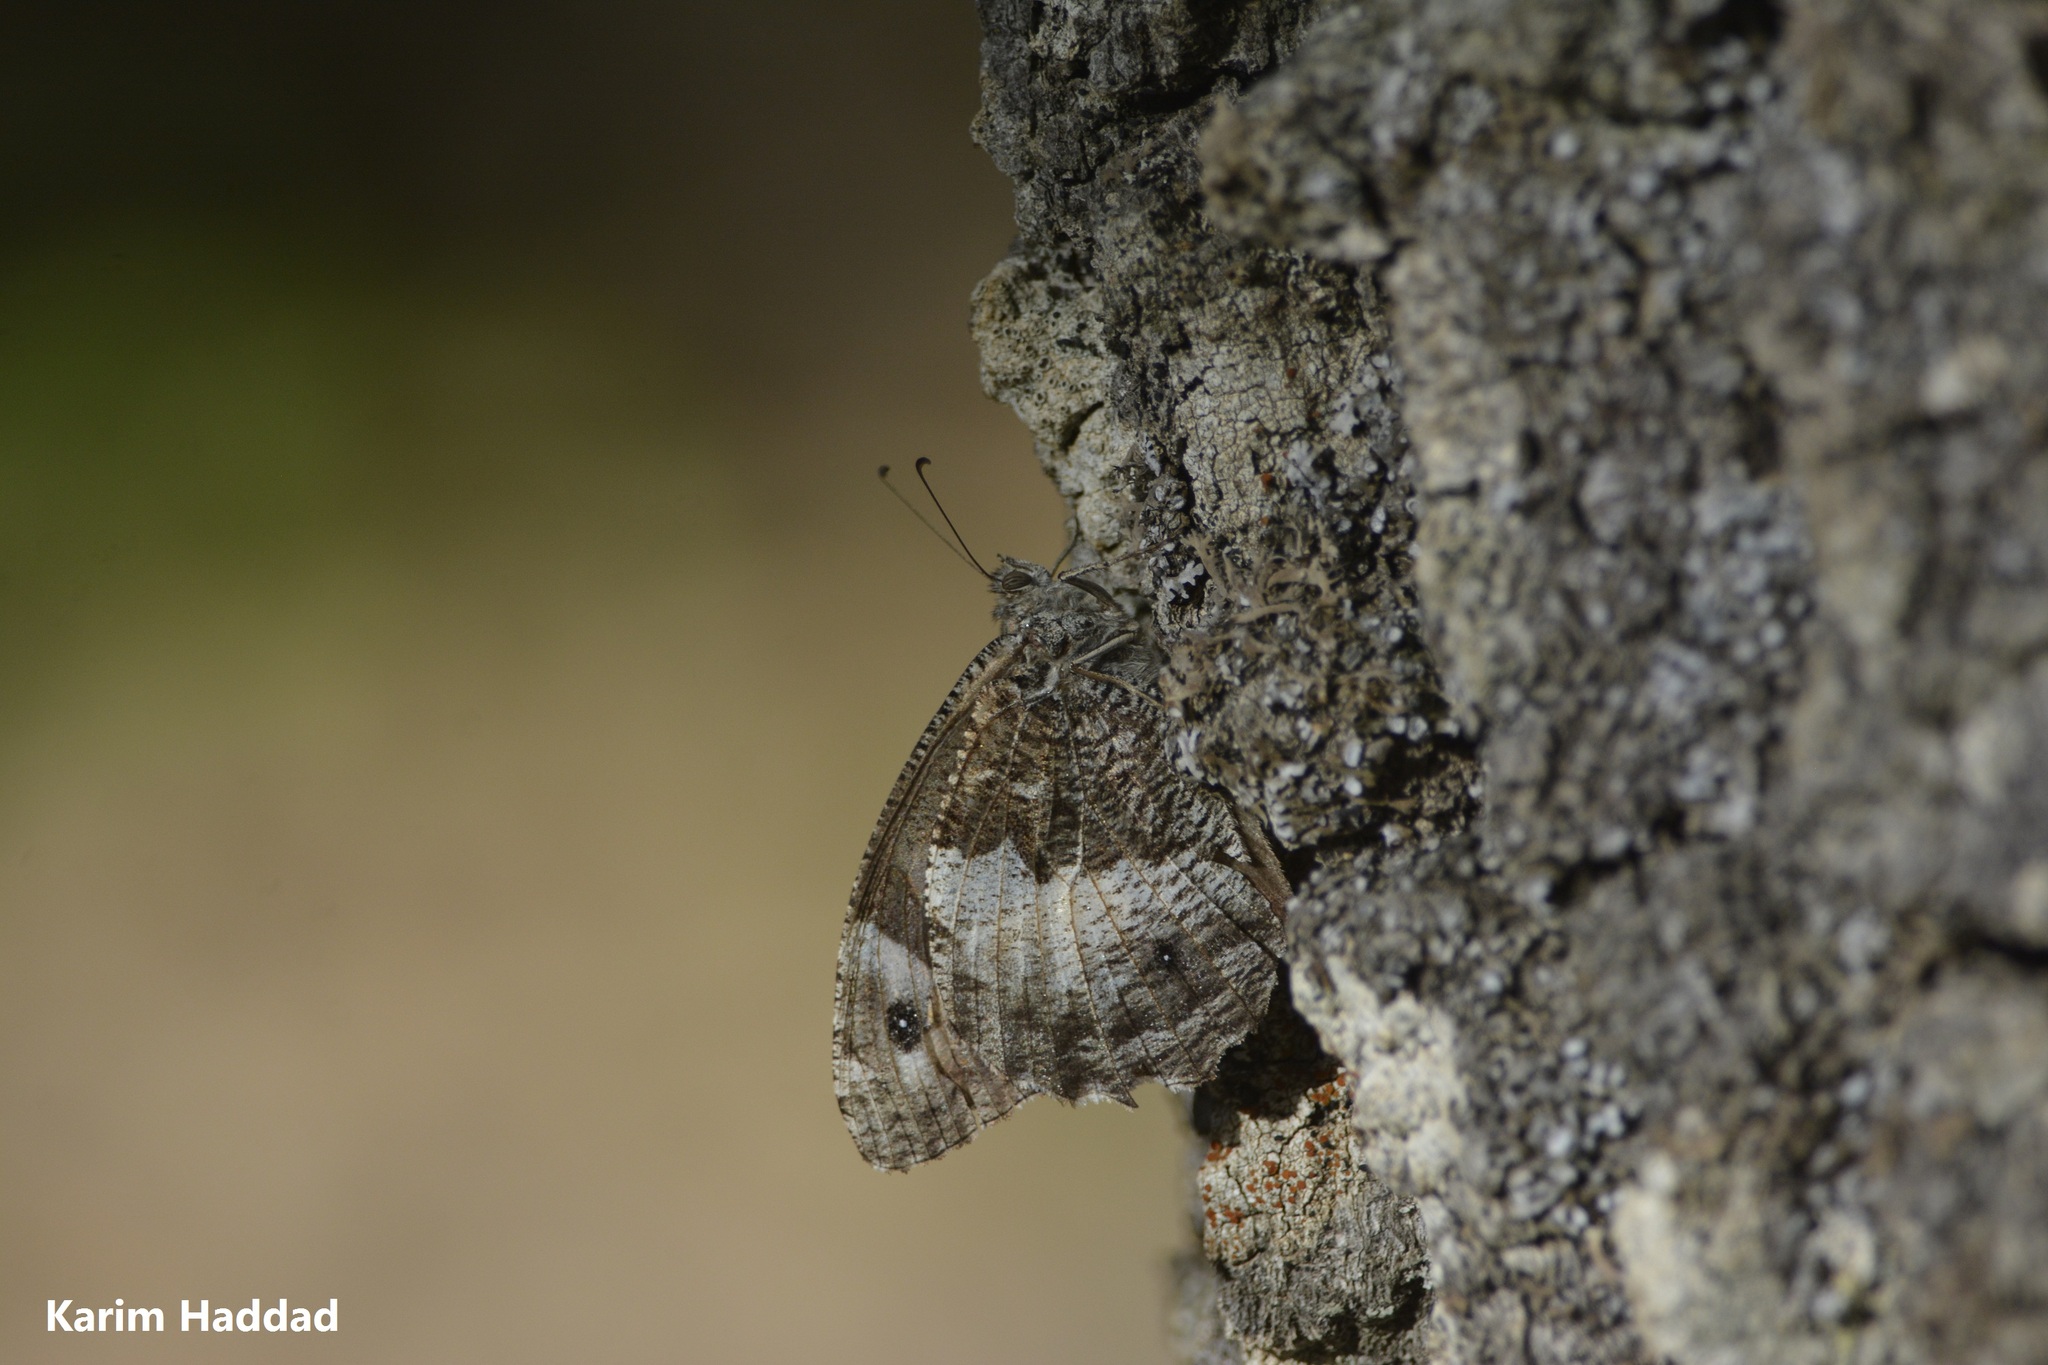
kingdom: Animalia
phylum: Arthropoda
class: Insecta
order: Lepidoptera
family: Nymphalidae
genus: Hipparchia
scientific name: Hipparchia ellena
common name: Algerian grayling
